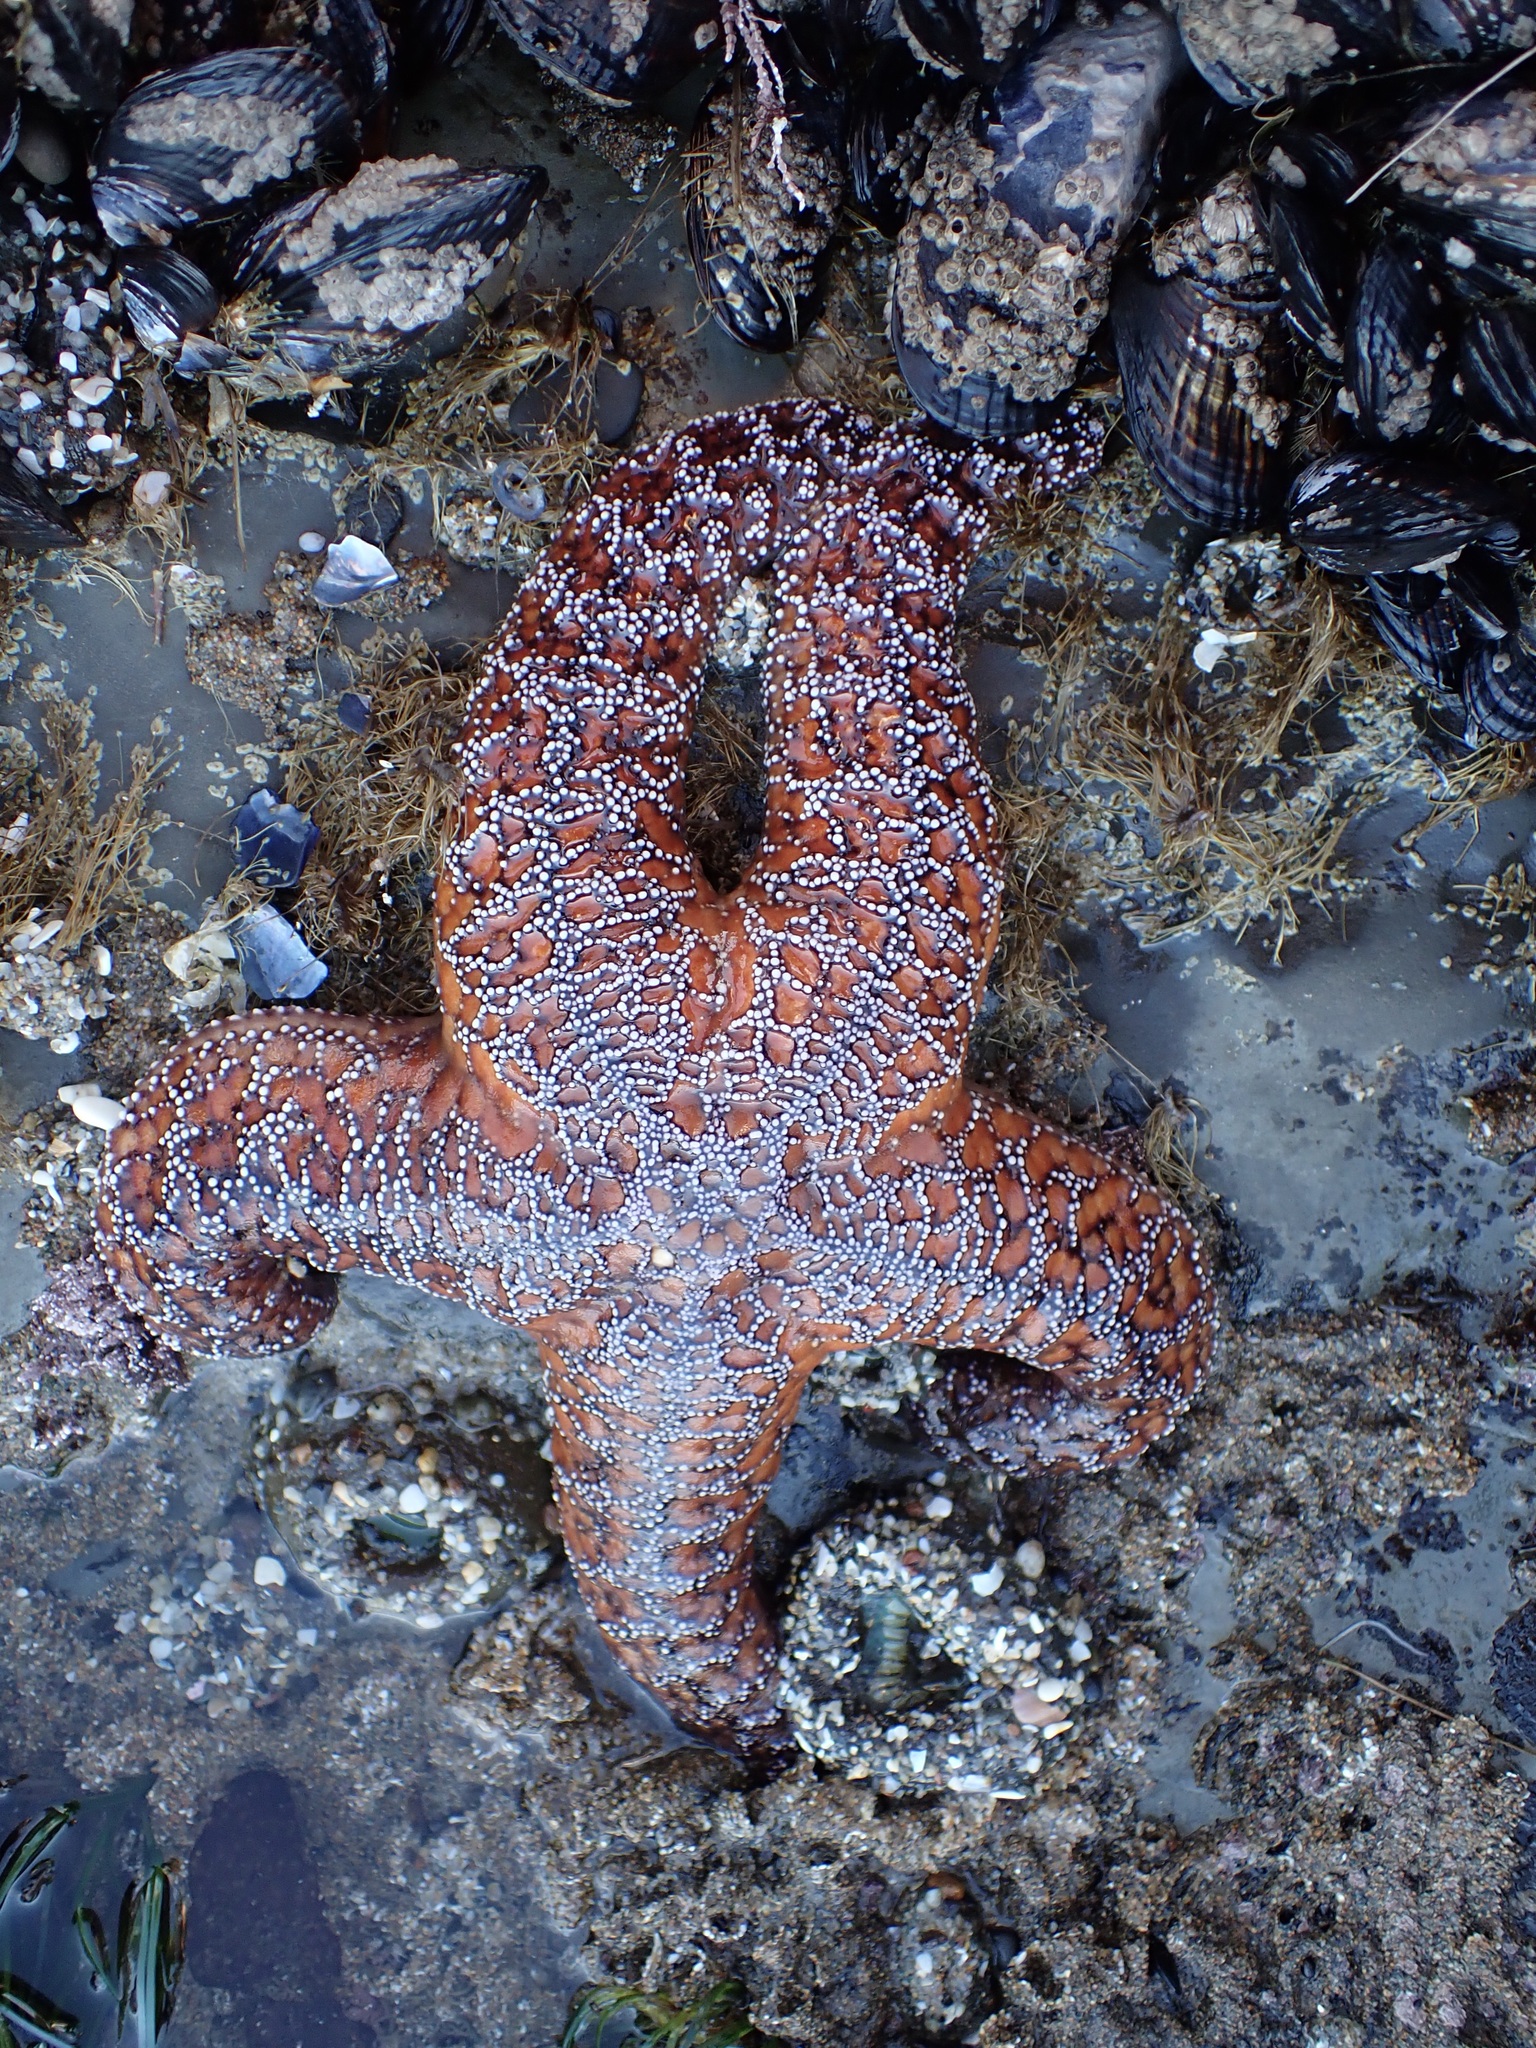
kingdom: Animalia
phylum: Echinodermata
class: Asteroidea
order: Forcipulatida
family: Asteriidae
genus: Pisaster
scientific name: Pisaster ochraceus
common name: Ochre stars
